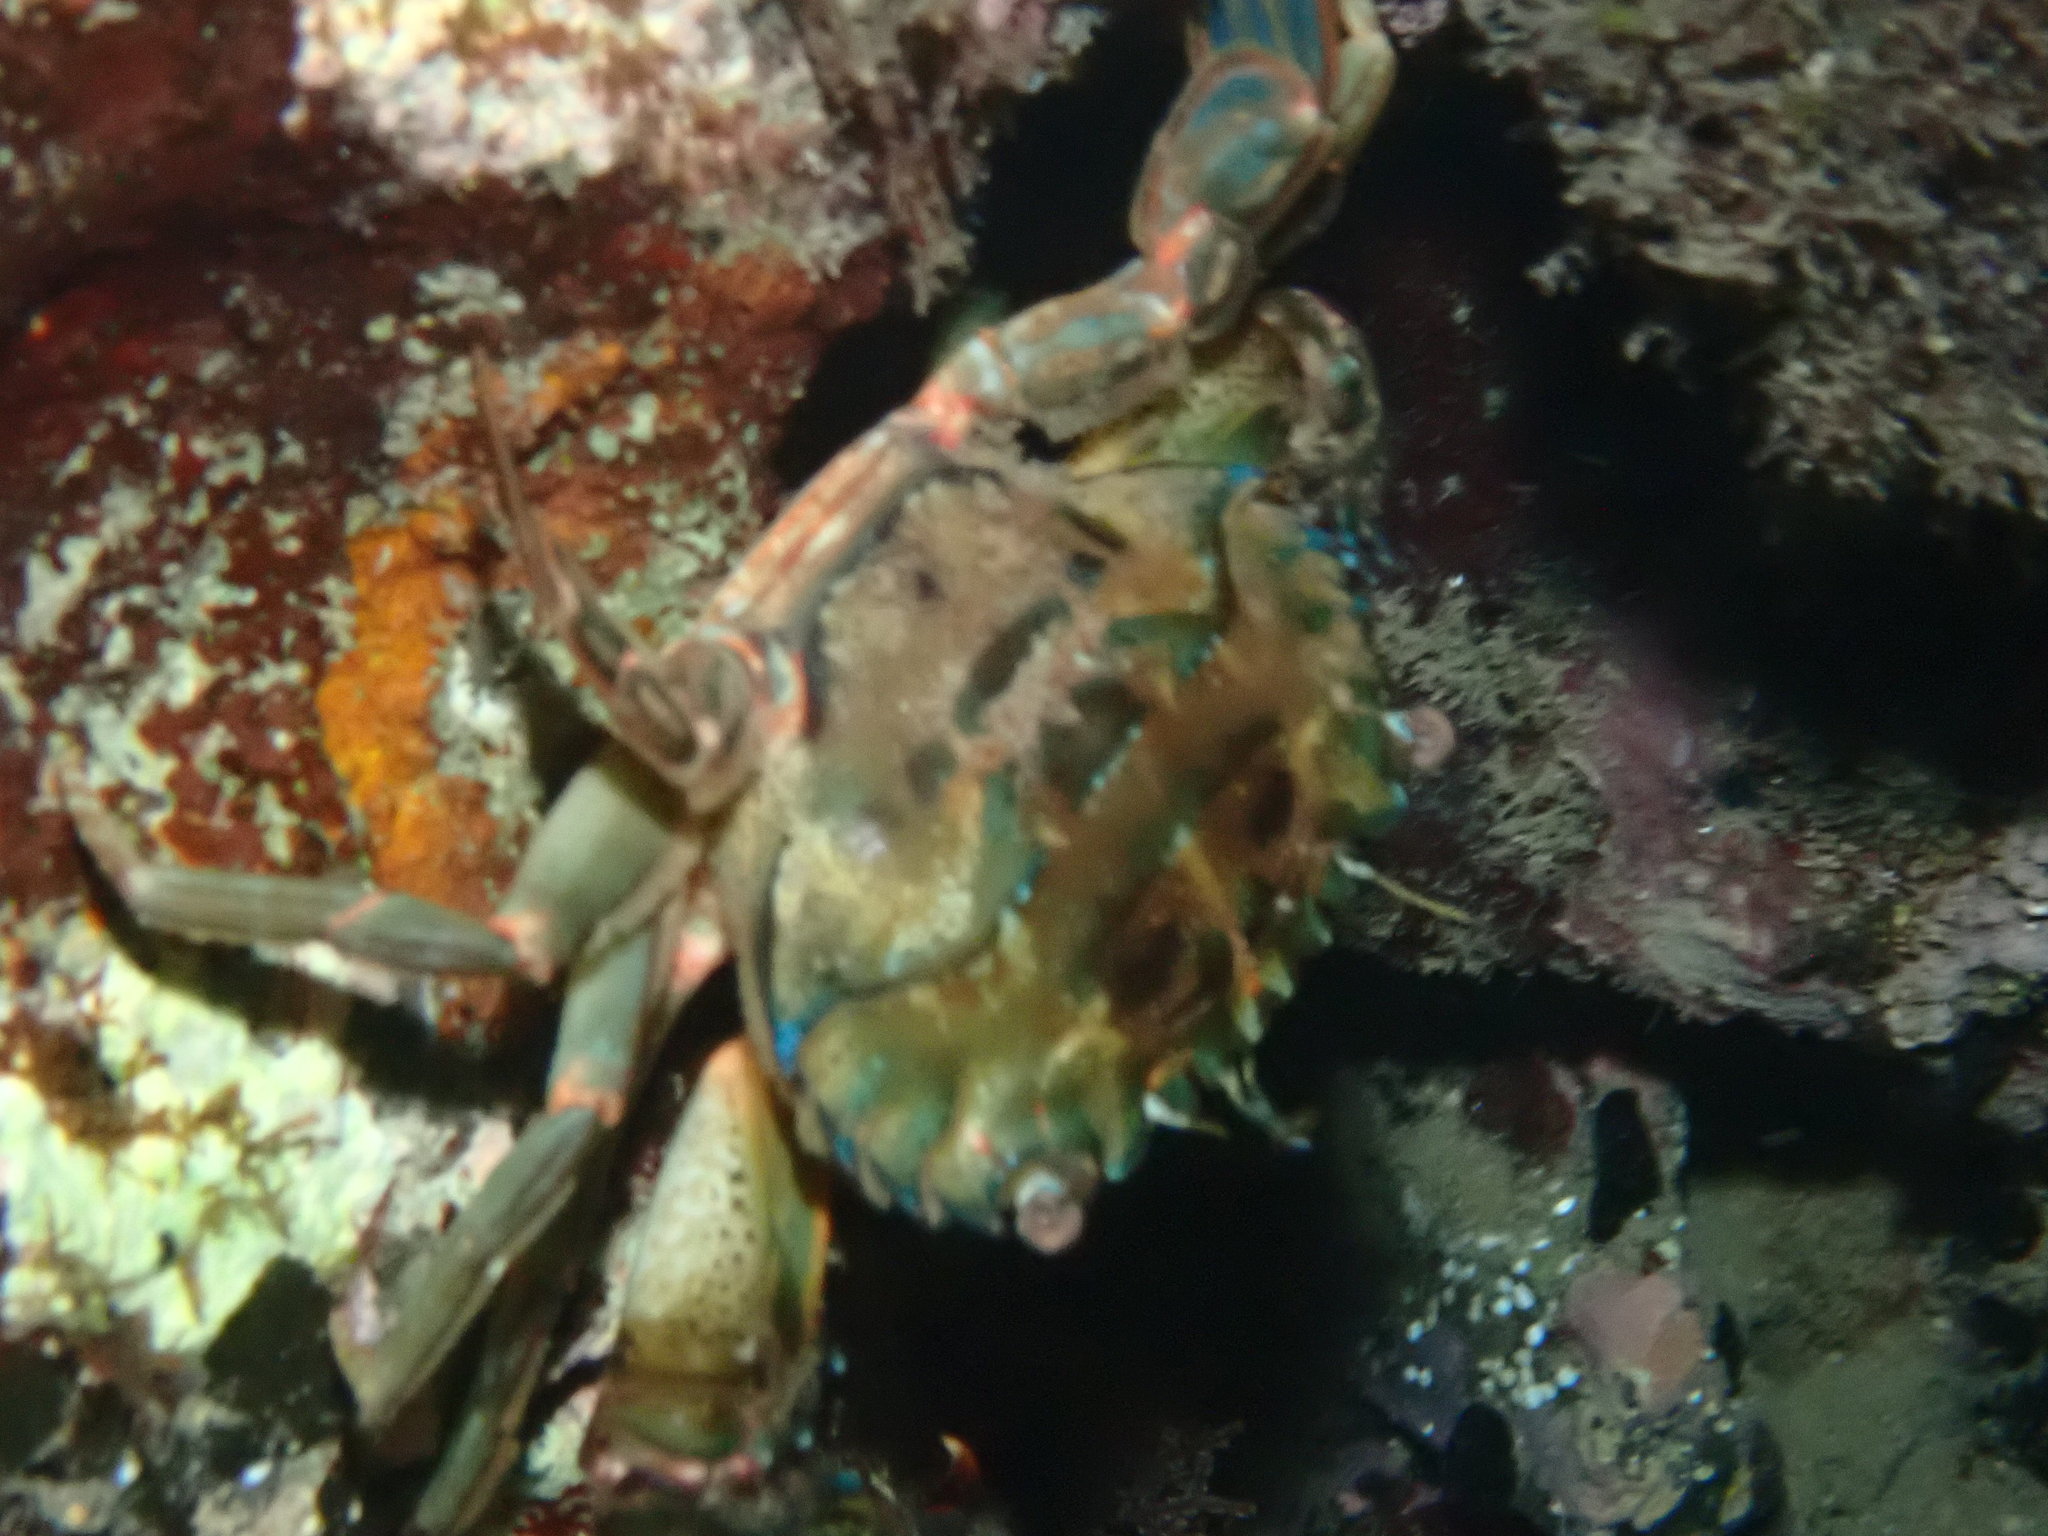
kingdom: Animalia
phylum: Arthropoda
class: Malacostraca
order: Decapoda
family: Portunidae
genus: Thalamita
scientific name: Thalamita prymna
